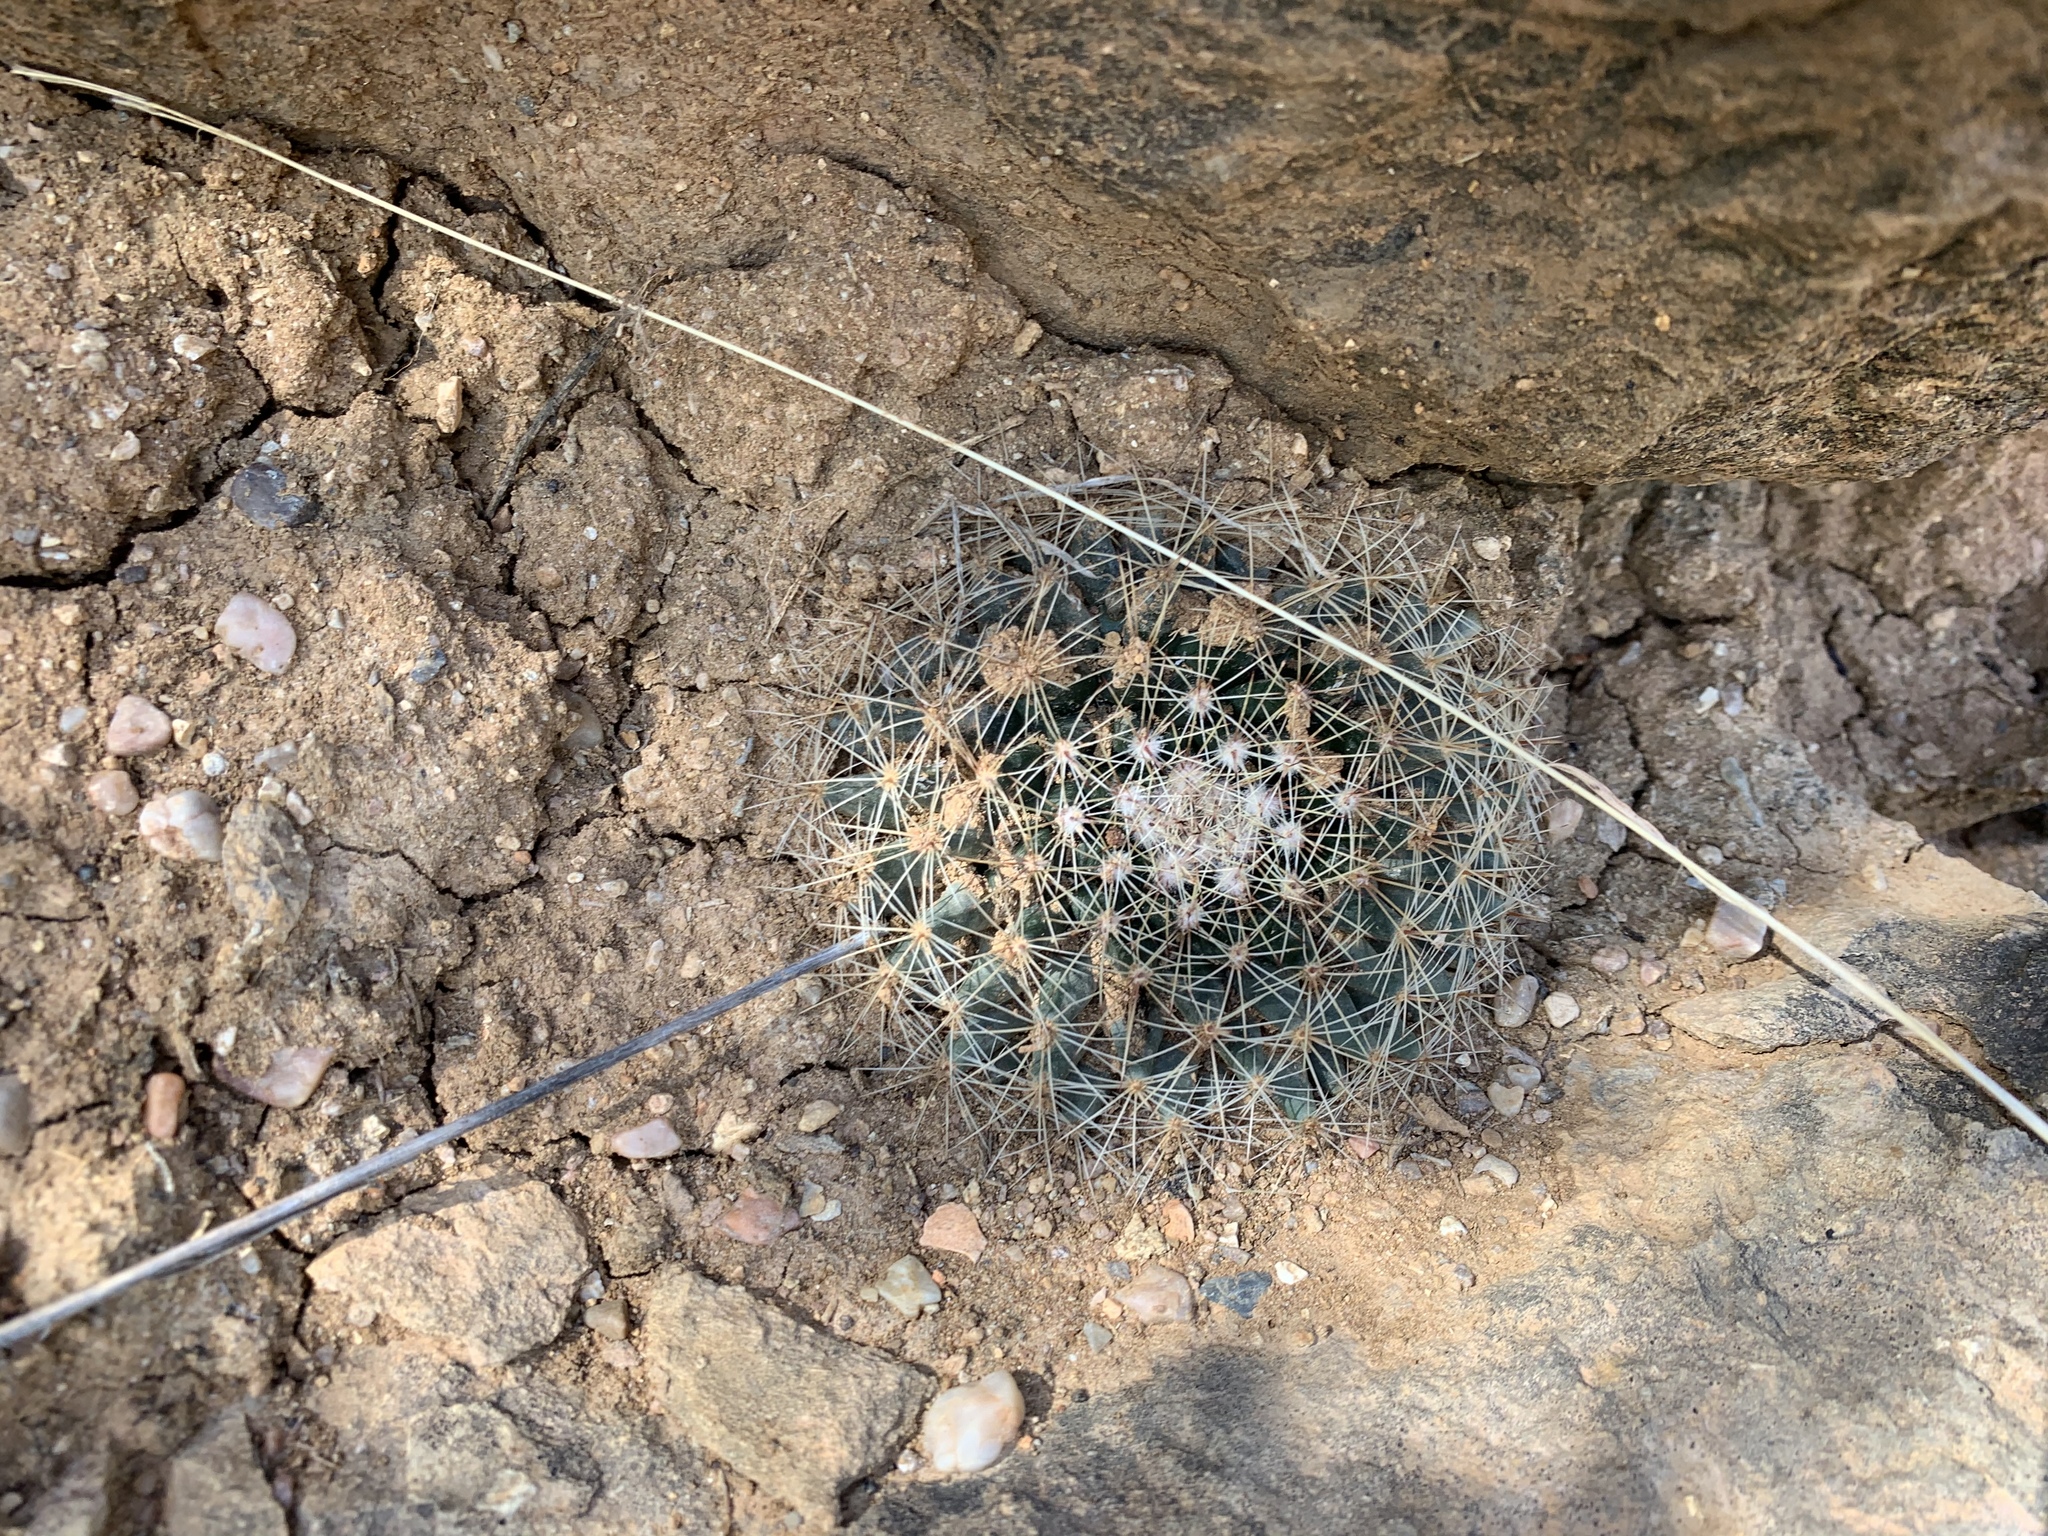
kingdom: Plantae
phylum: Tracheophyta
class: Magnoliopsida
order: Caryophyllales
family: Cactaceae
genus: Mammillaria
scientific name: Mammillaria heyderi
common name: Little nipple cactus
